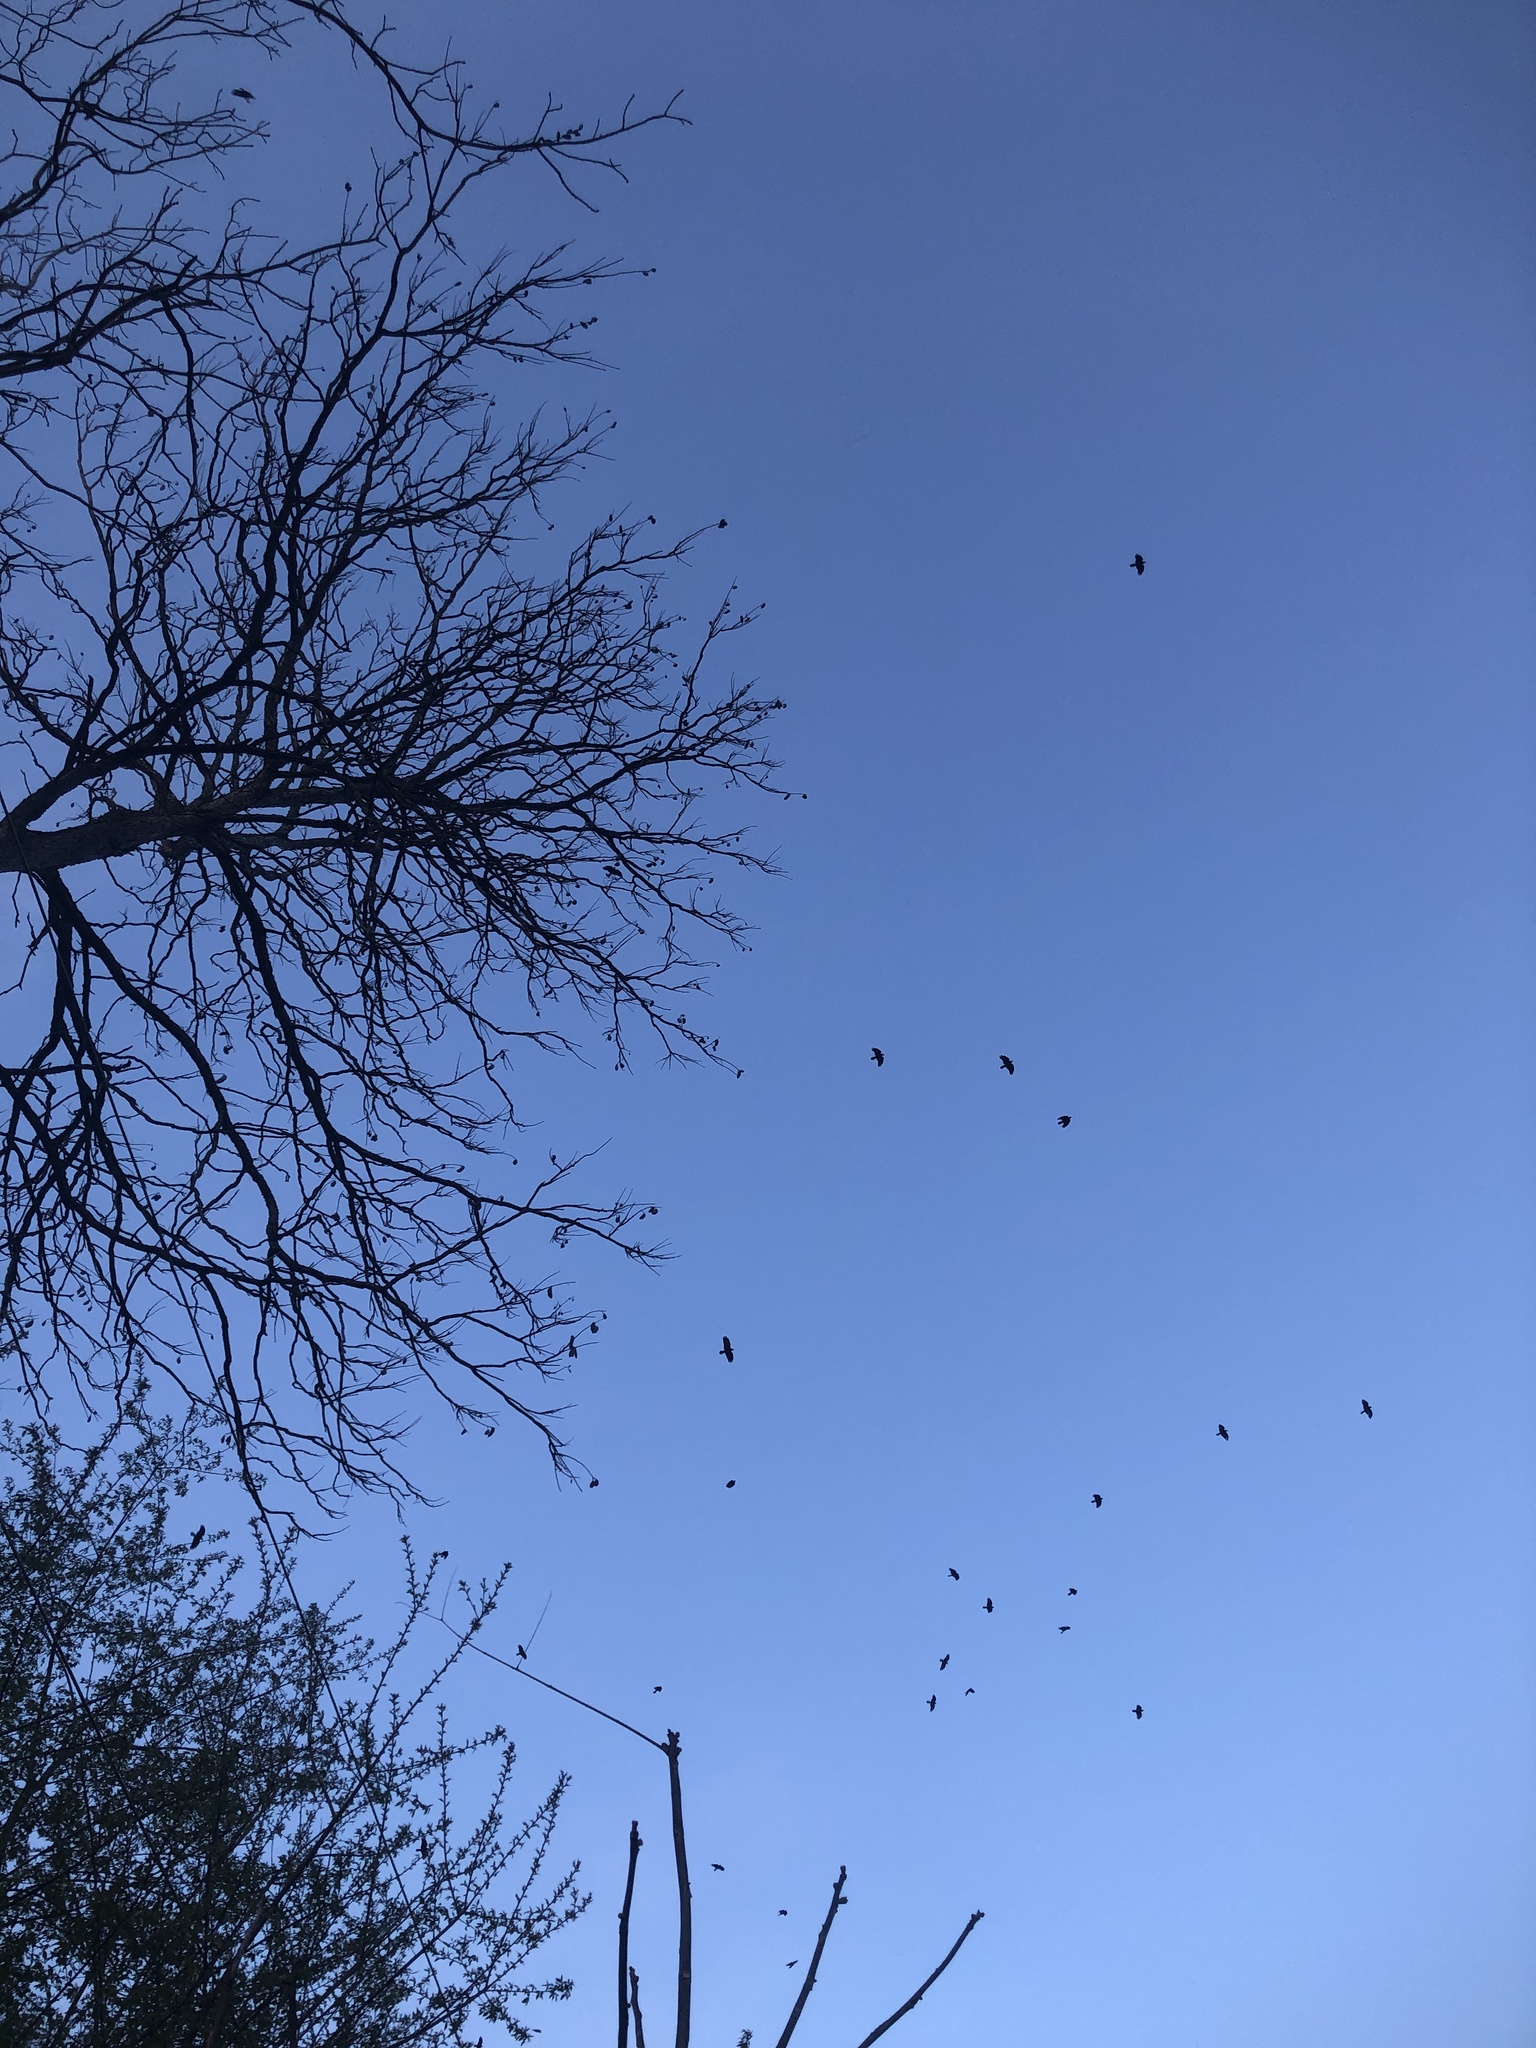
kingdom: Animalia
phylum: Chordata
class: Aves
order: Passeriformes
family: Corvidae
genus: Corvus
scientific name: Corvus ossifragus
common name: Fish crow
